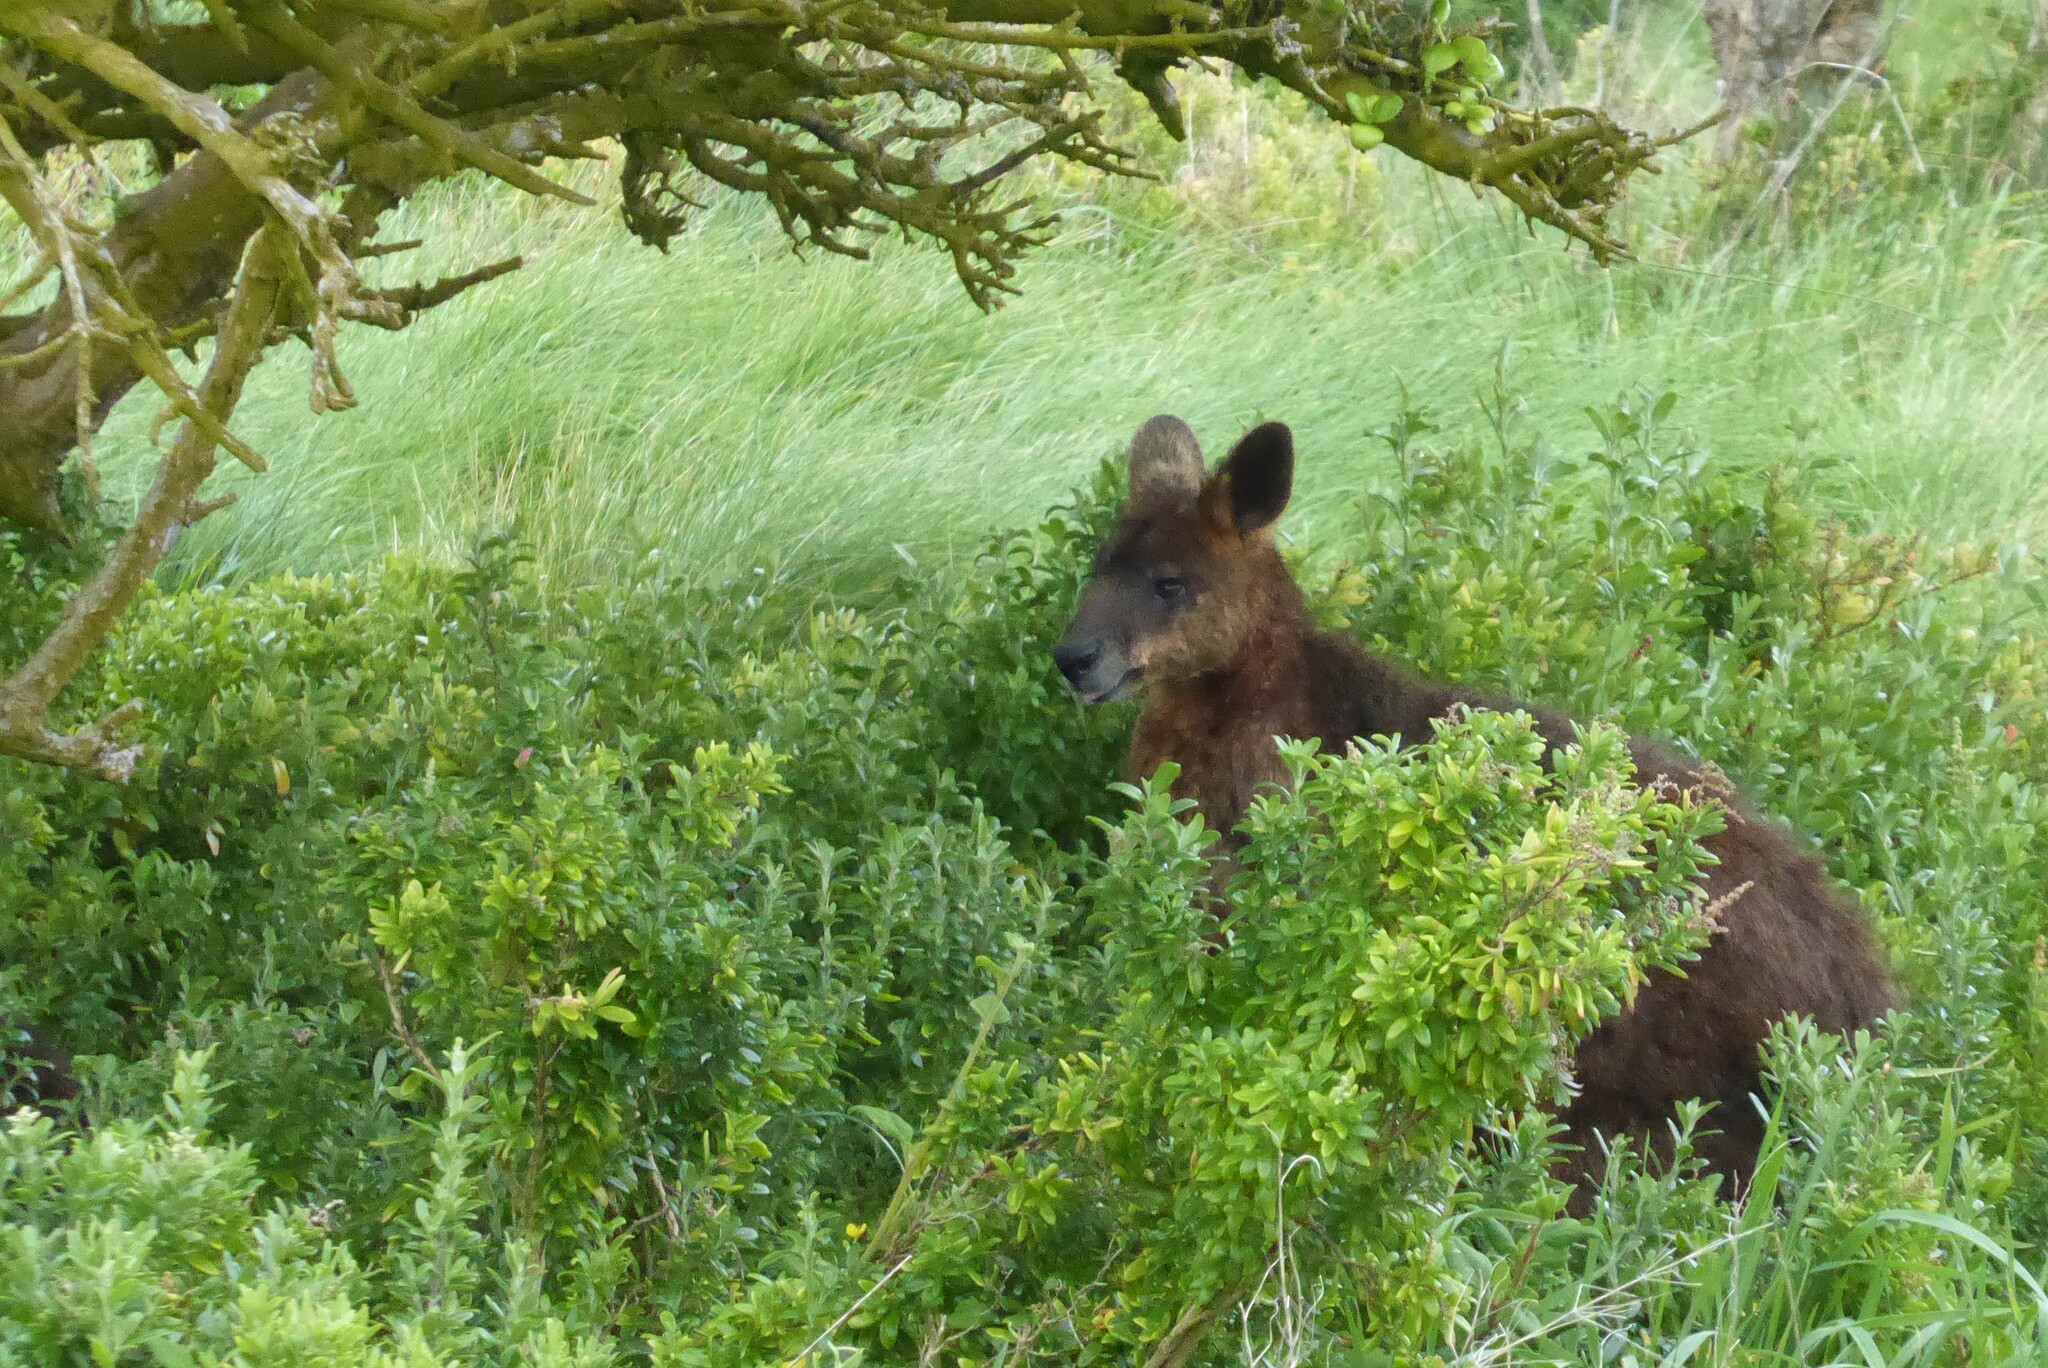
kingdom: Animalia
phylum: Chordata
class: Mammalia
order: Diprotodontia
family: Macropodidae
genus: Wallabia
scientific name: Wallabia bicolor
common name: Swamp wallaby
